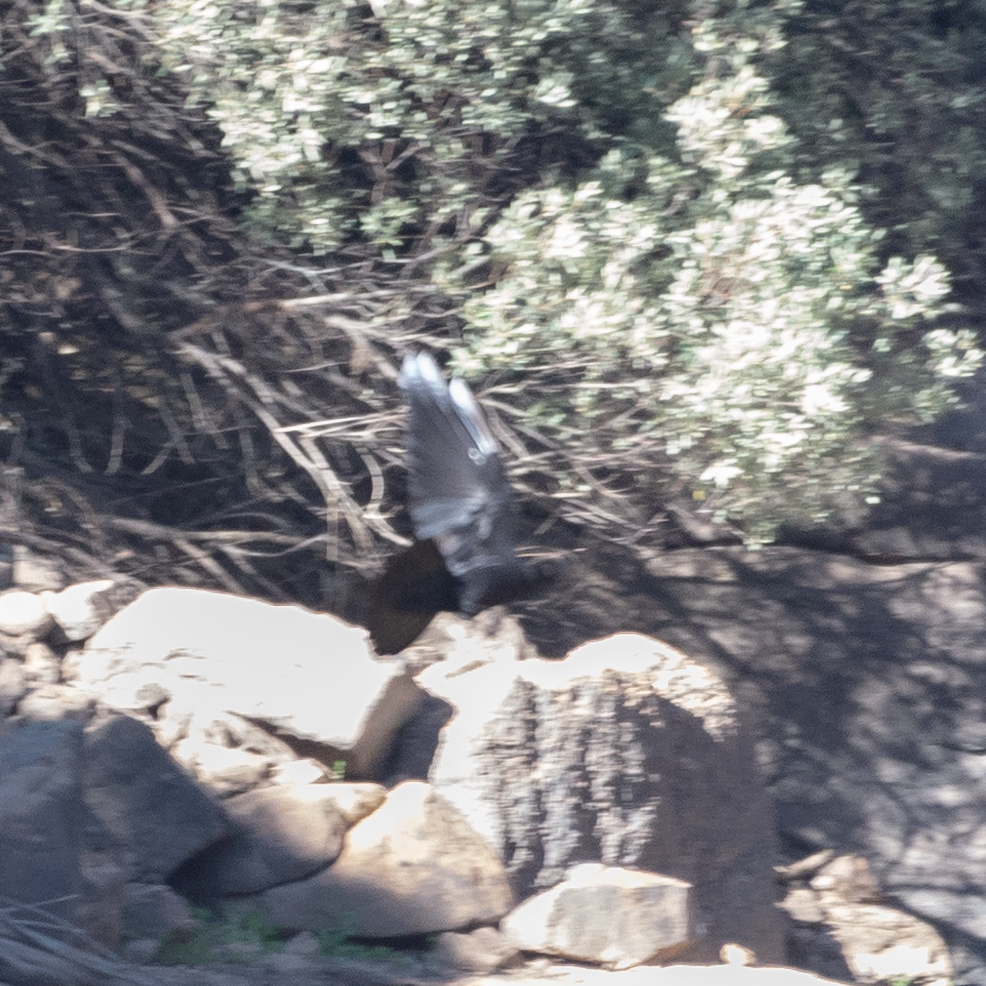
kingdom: Animalia
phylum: Chordata
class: Aves
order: Passeriformes
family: Corvidae
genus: Corvus
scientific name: Corvus corone
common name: Carrion crow
